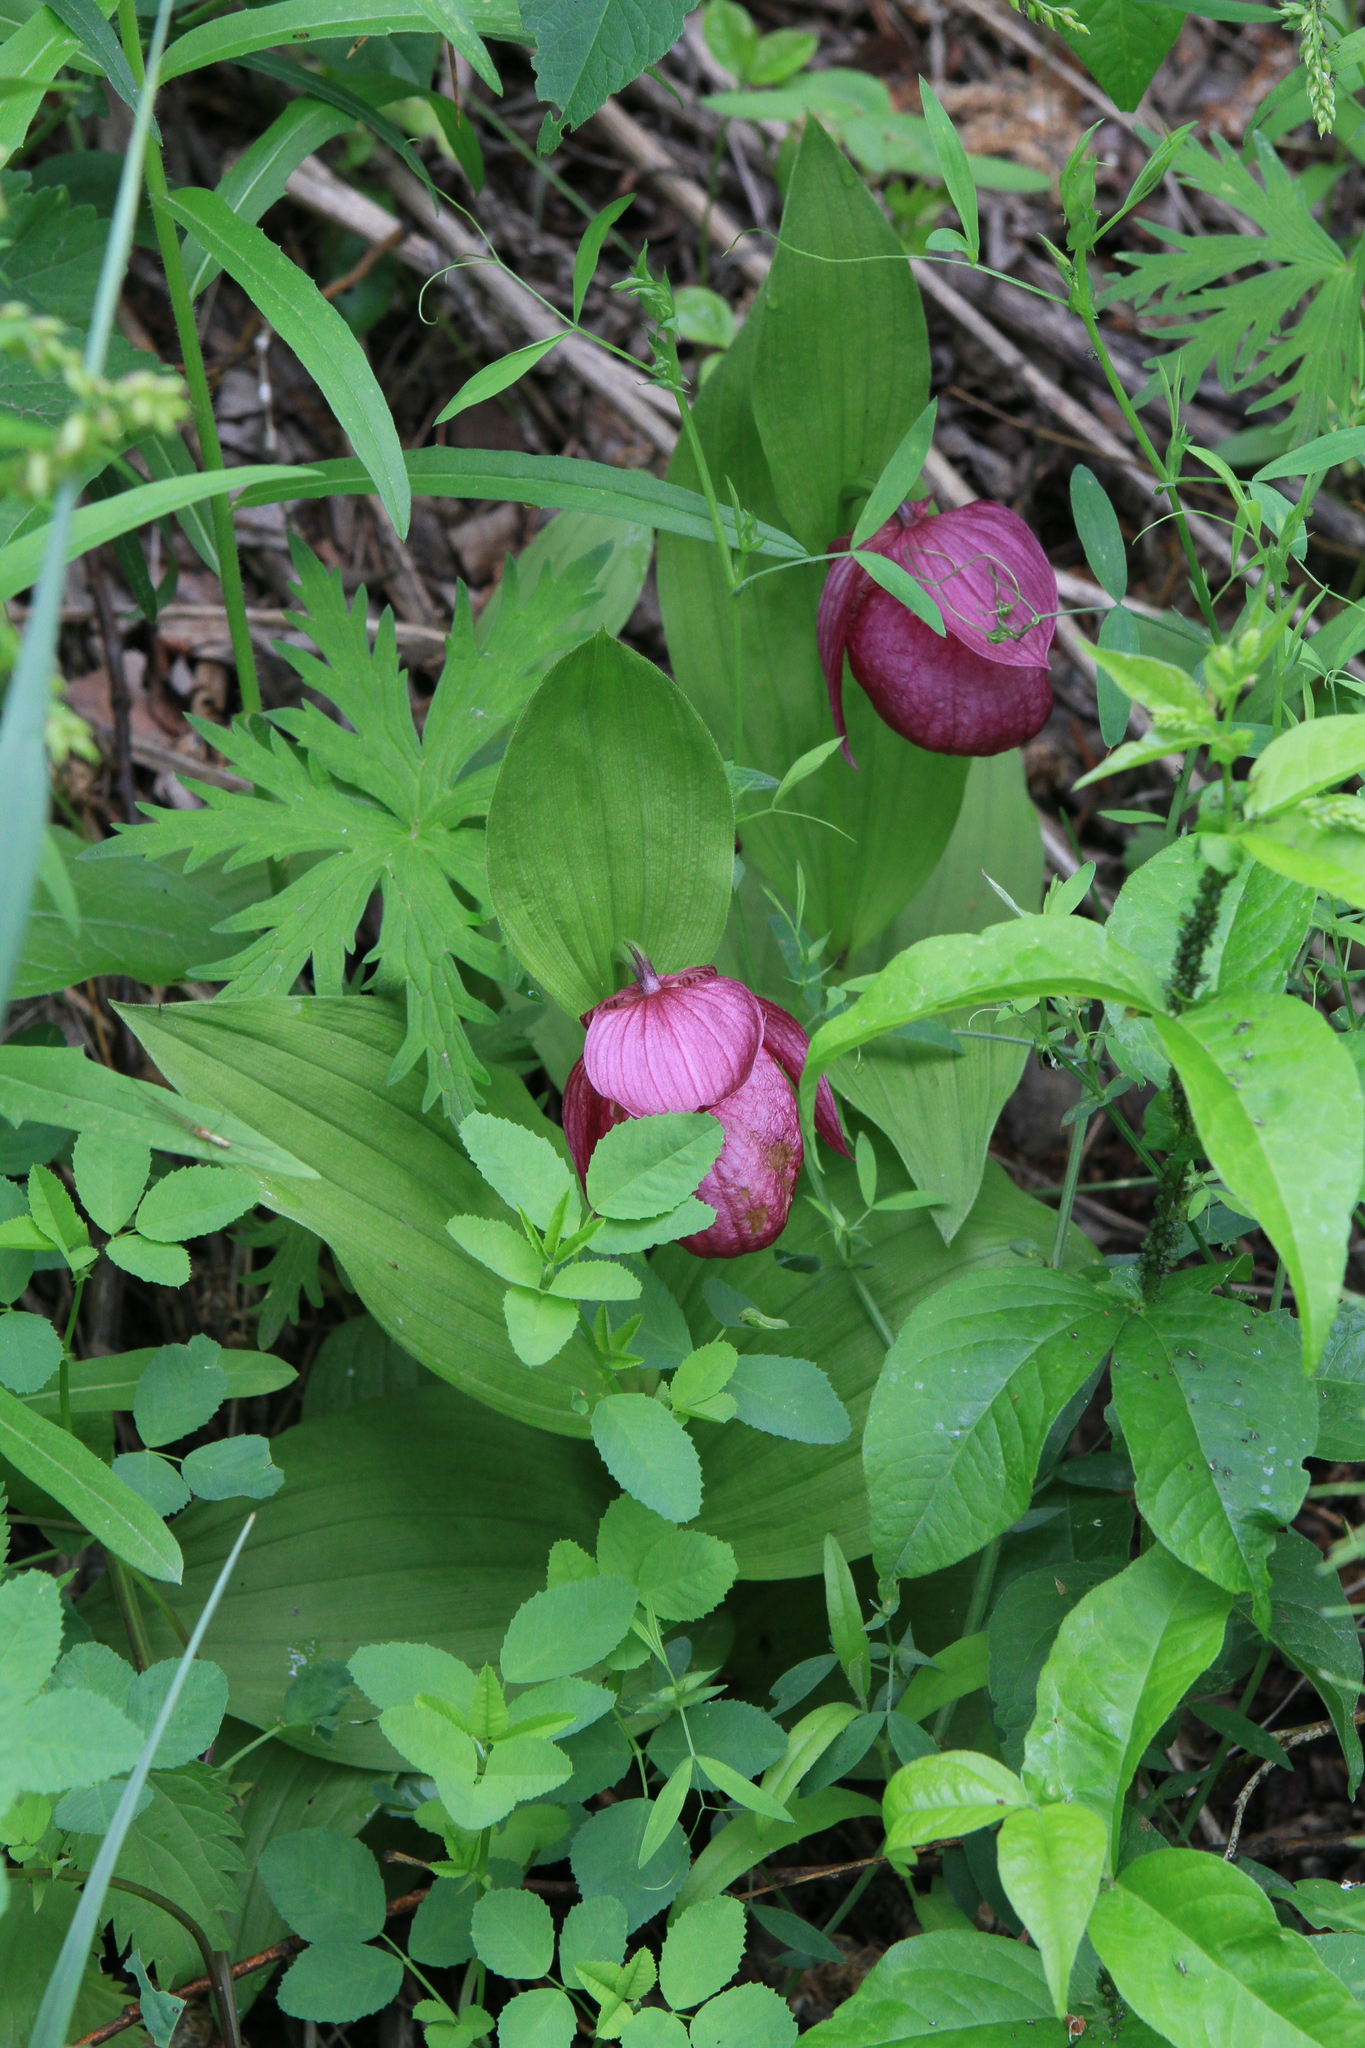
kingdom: Plantae
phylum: Tracheophyta
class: Liliopsida
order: Asparagales
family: Orchidaceae
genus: Cypripedium
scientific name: Cypripedium macranthos
